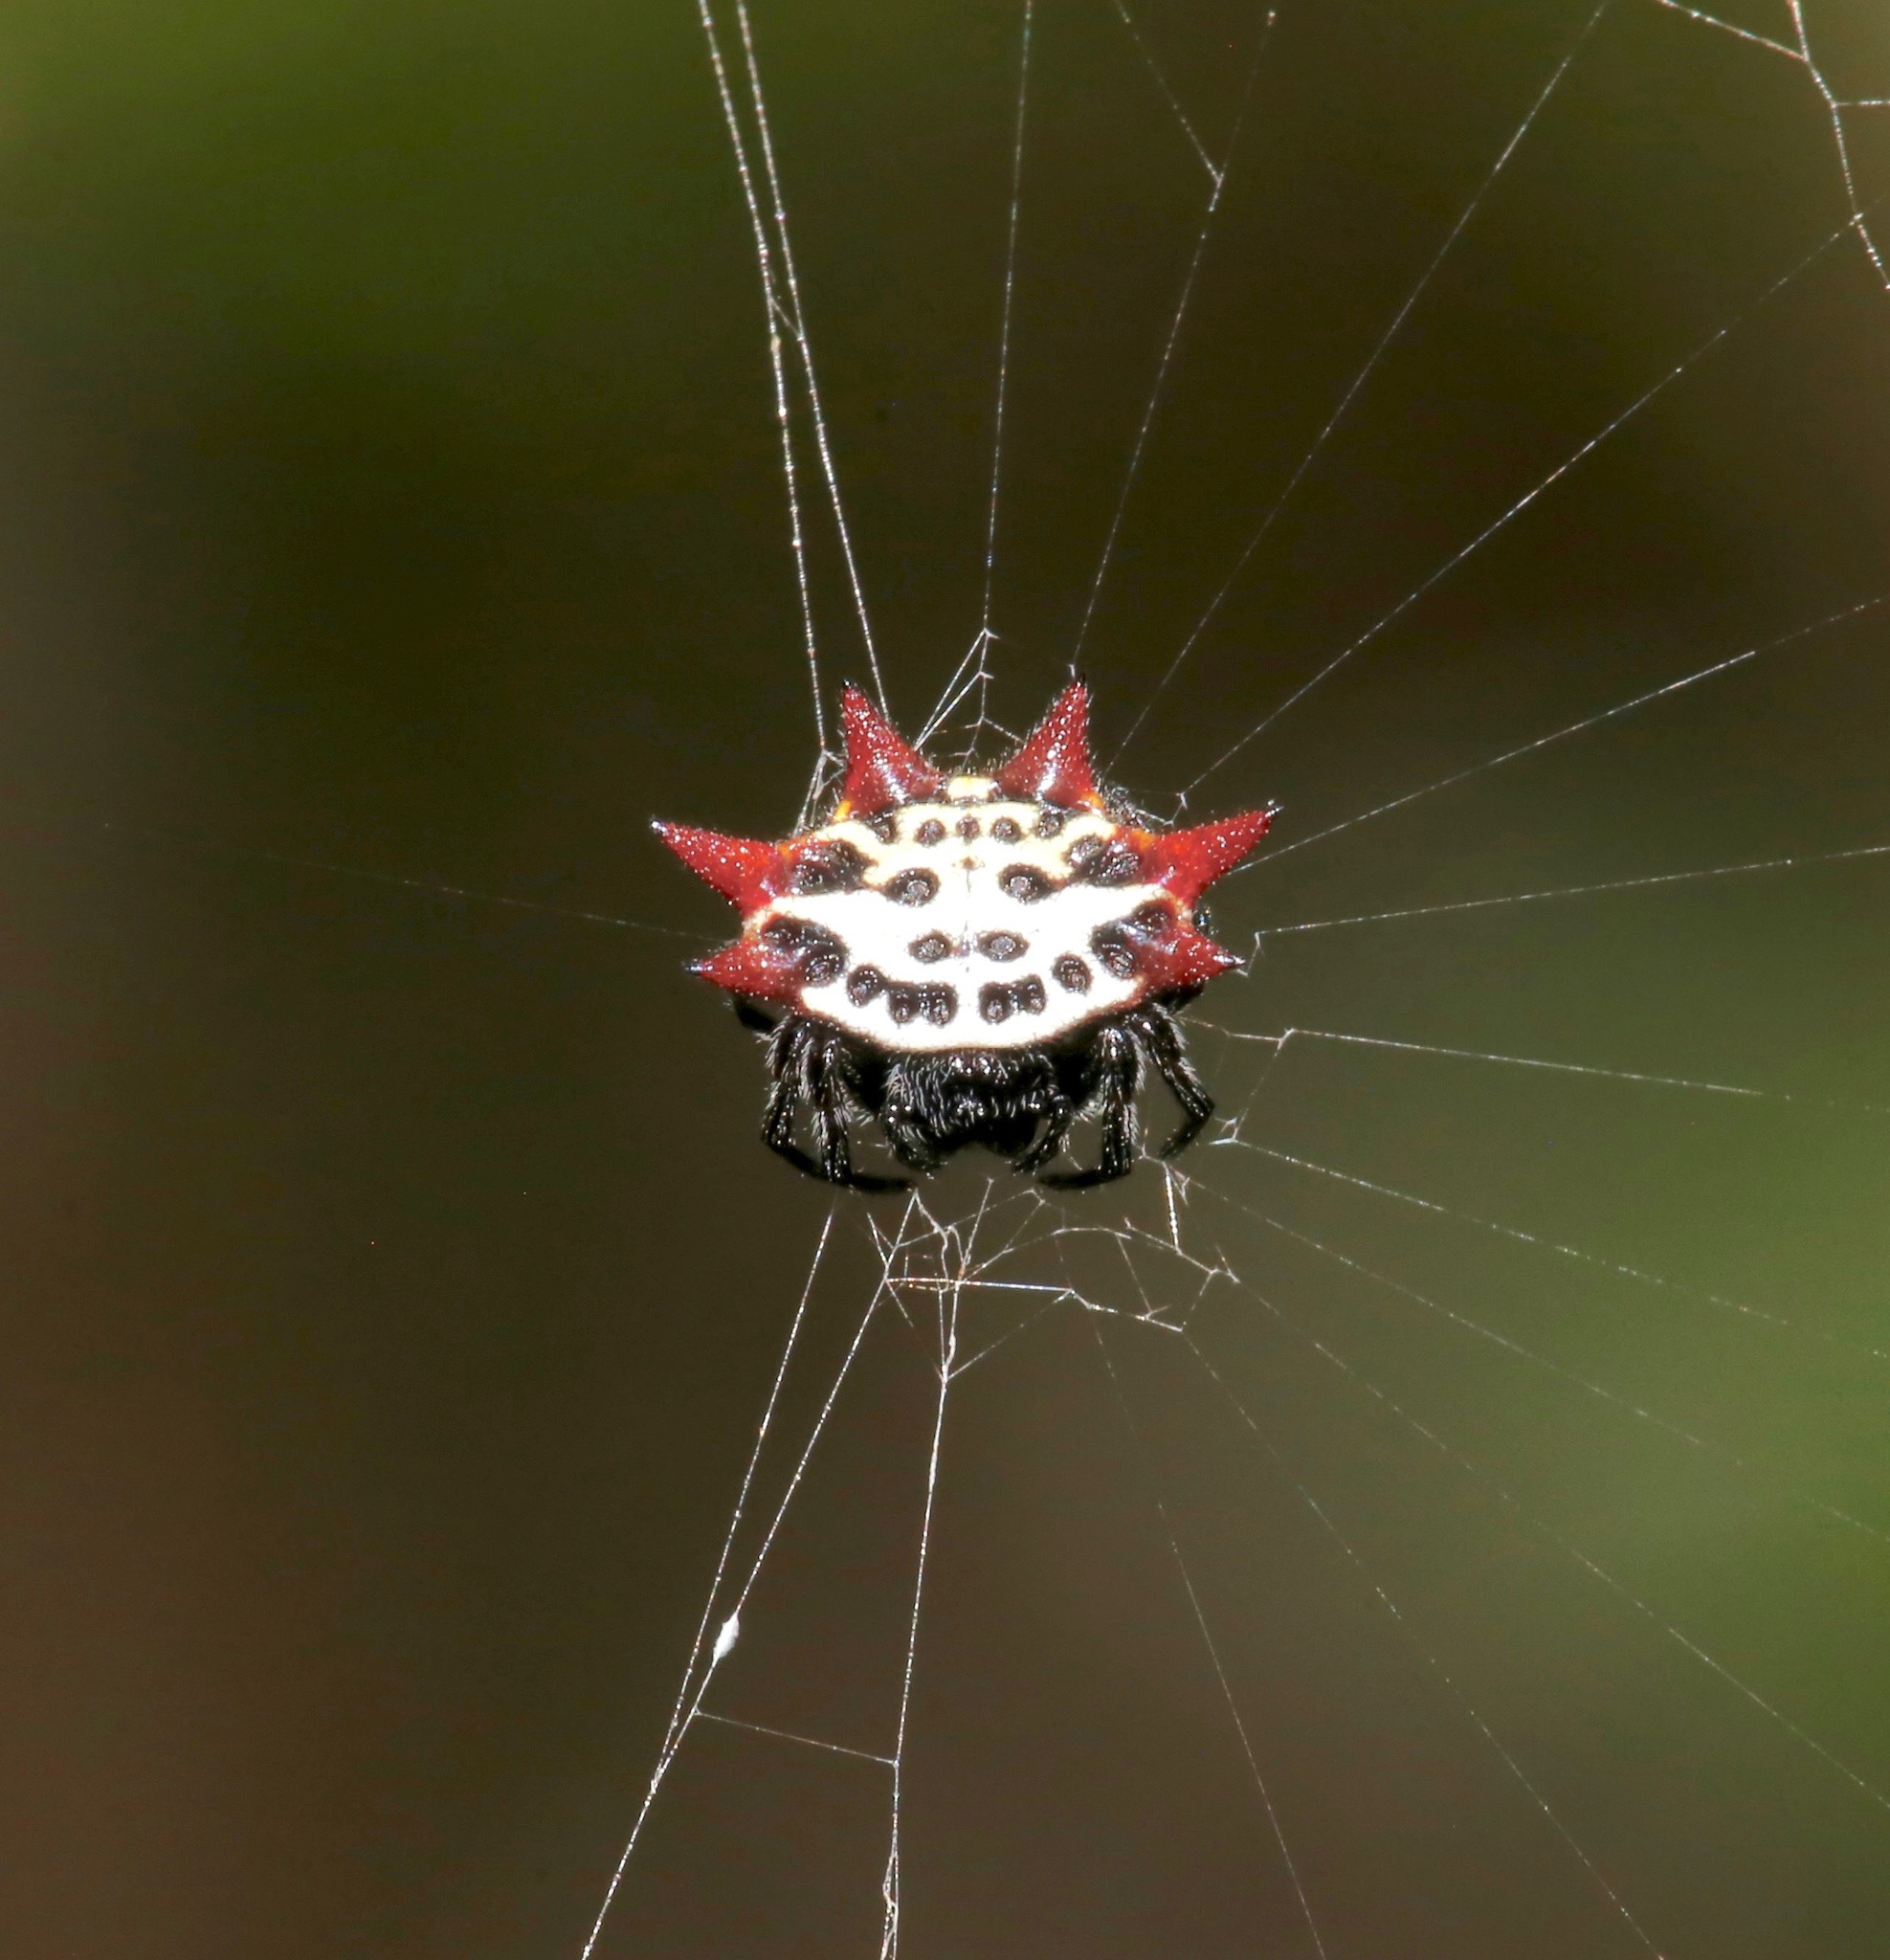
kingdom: Animalia
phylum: Arthropoda
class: Arachnida
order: Araneae
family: Araneidae
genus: Gasteracantha
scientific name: Gasteracantha cancriformis
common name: Orb weavers
